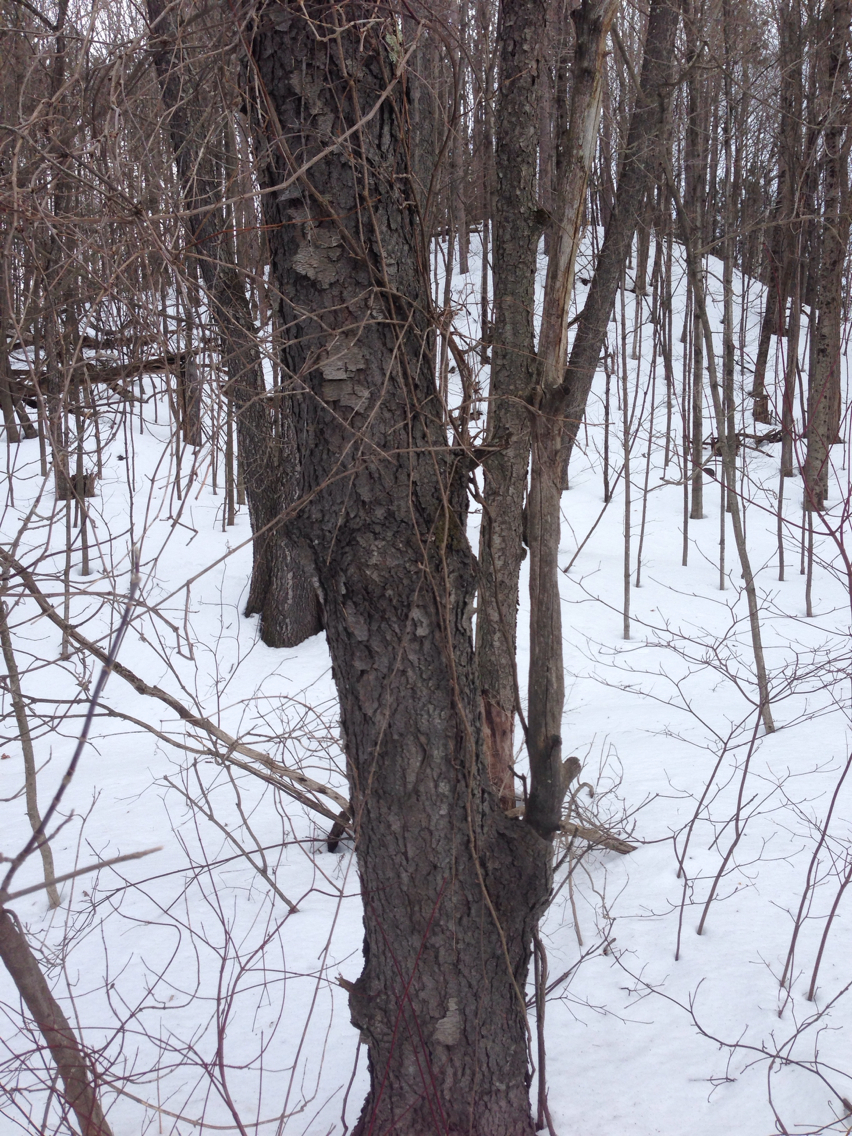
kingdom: Plantae
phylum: Tracheophyta
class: Magnoliopsida
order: Rosales
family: Rosaceae
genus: Prunus
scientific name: Prunus serotina
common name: Black cherry
